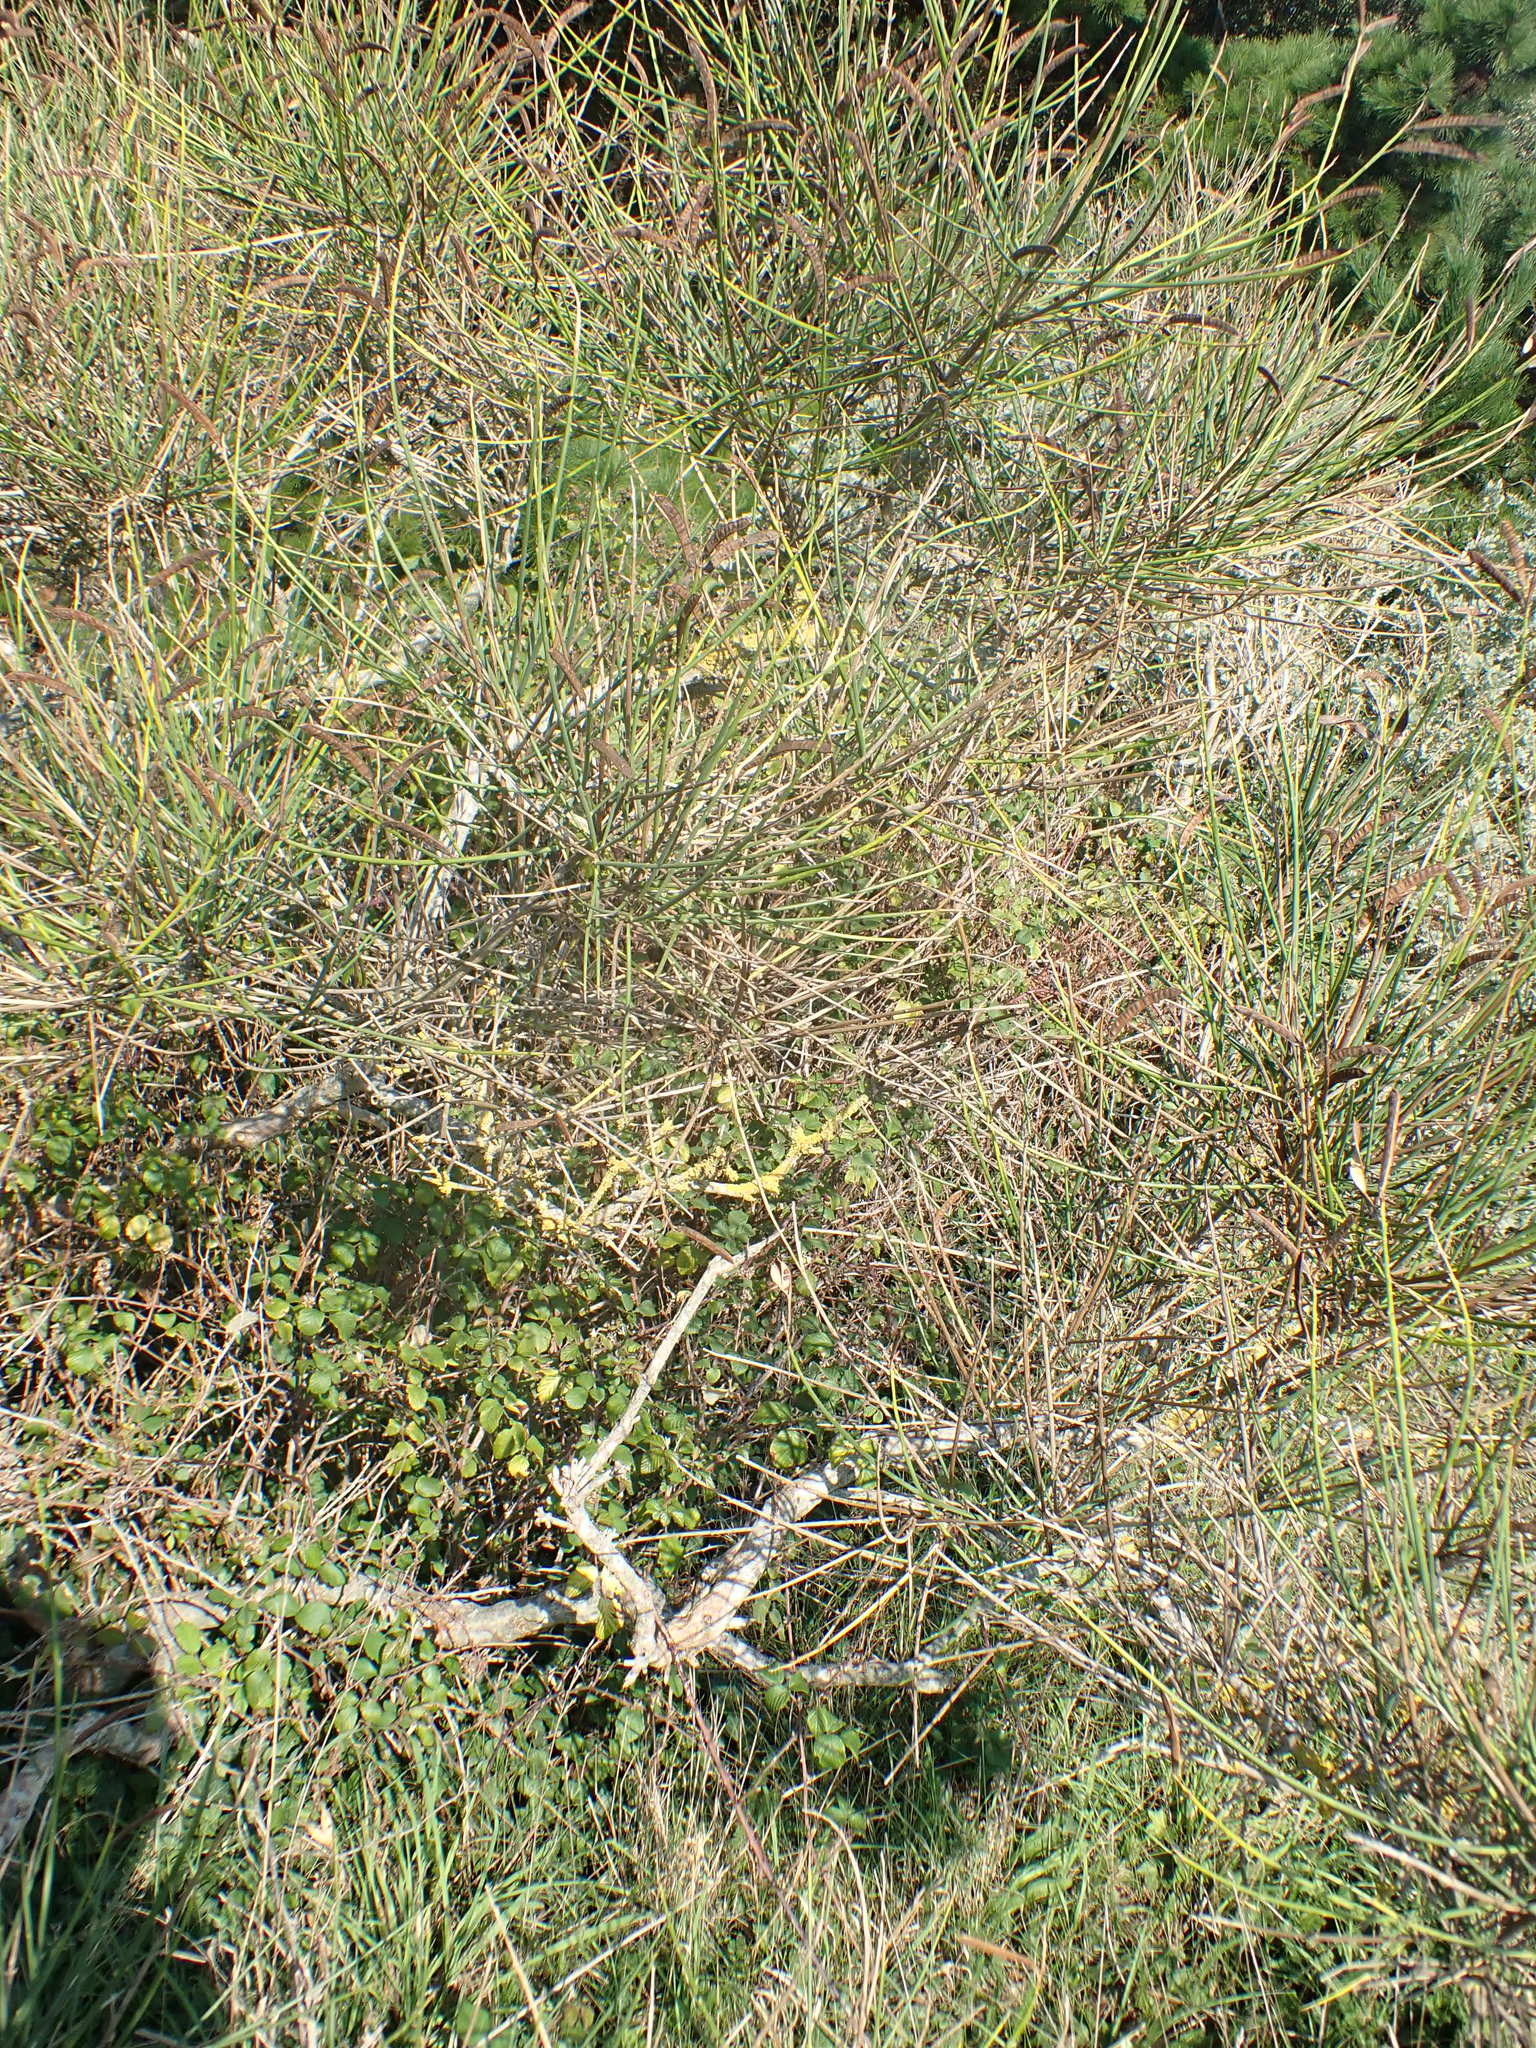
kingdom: Plantae
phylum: Tracheophyta
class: Magnoliopsida
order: Fabales
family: Fabaceae
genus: Spartium
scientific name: Spartium junceum
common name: Spanish broom
